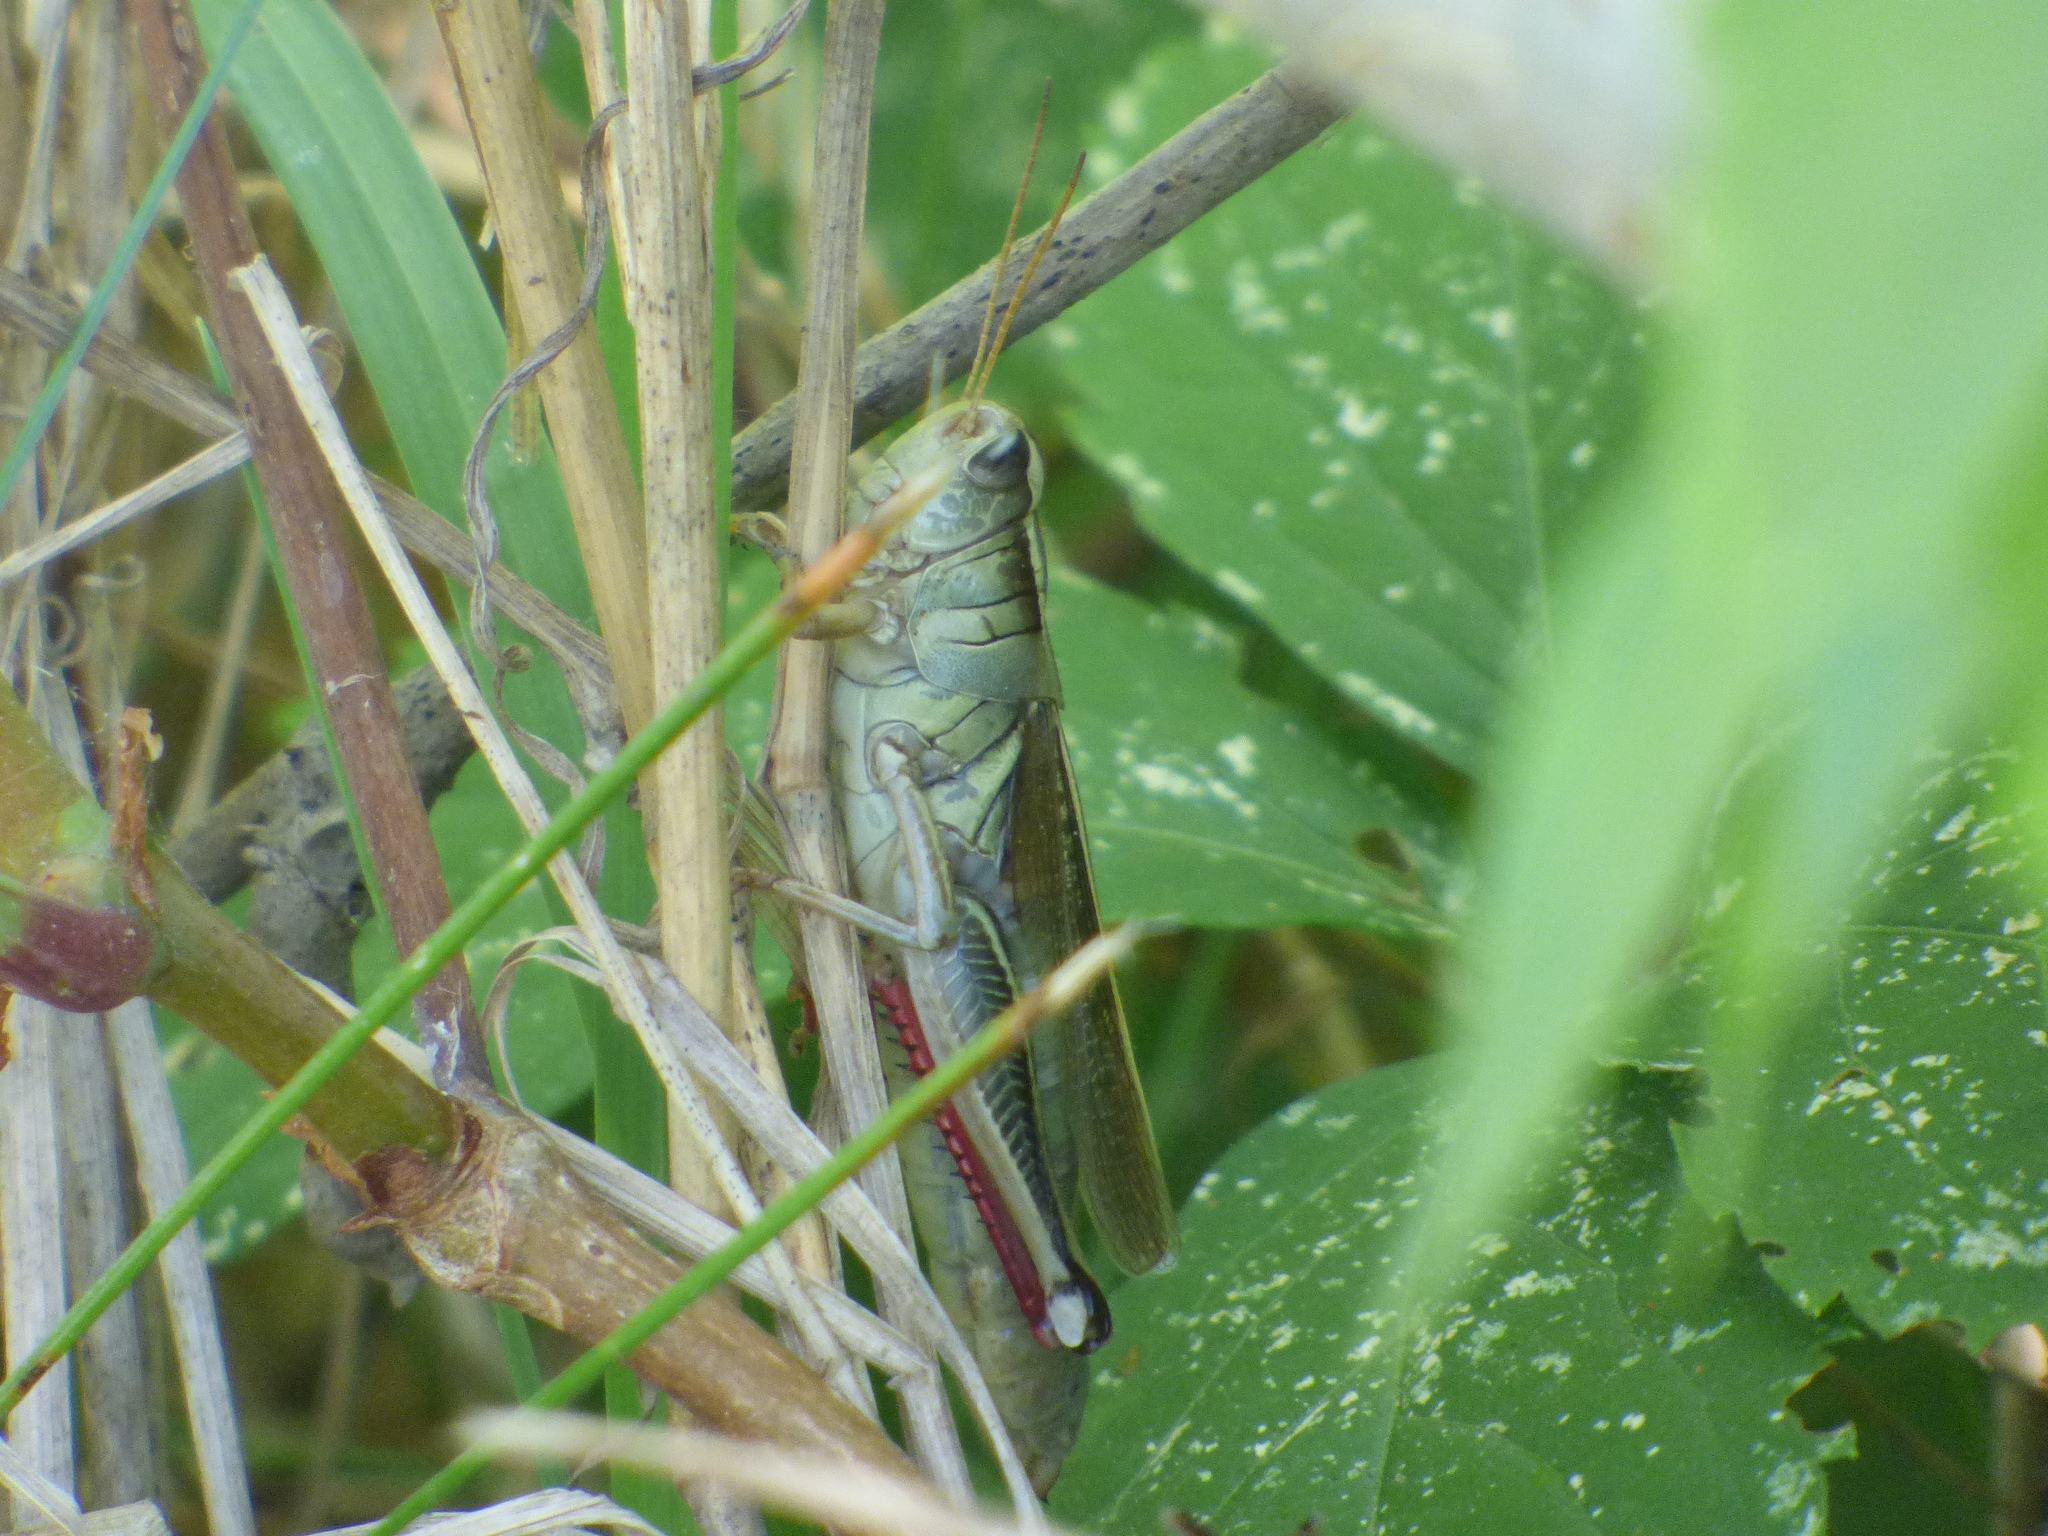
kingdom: Animalia
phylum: Arthropoda
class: Insecta
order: Orthoptera
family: Acrididae
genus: Melanoplus
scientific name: Melanoplus bivittatus
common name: Two-striped grasshopper
